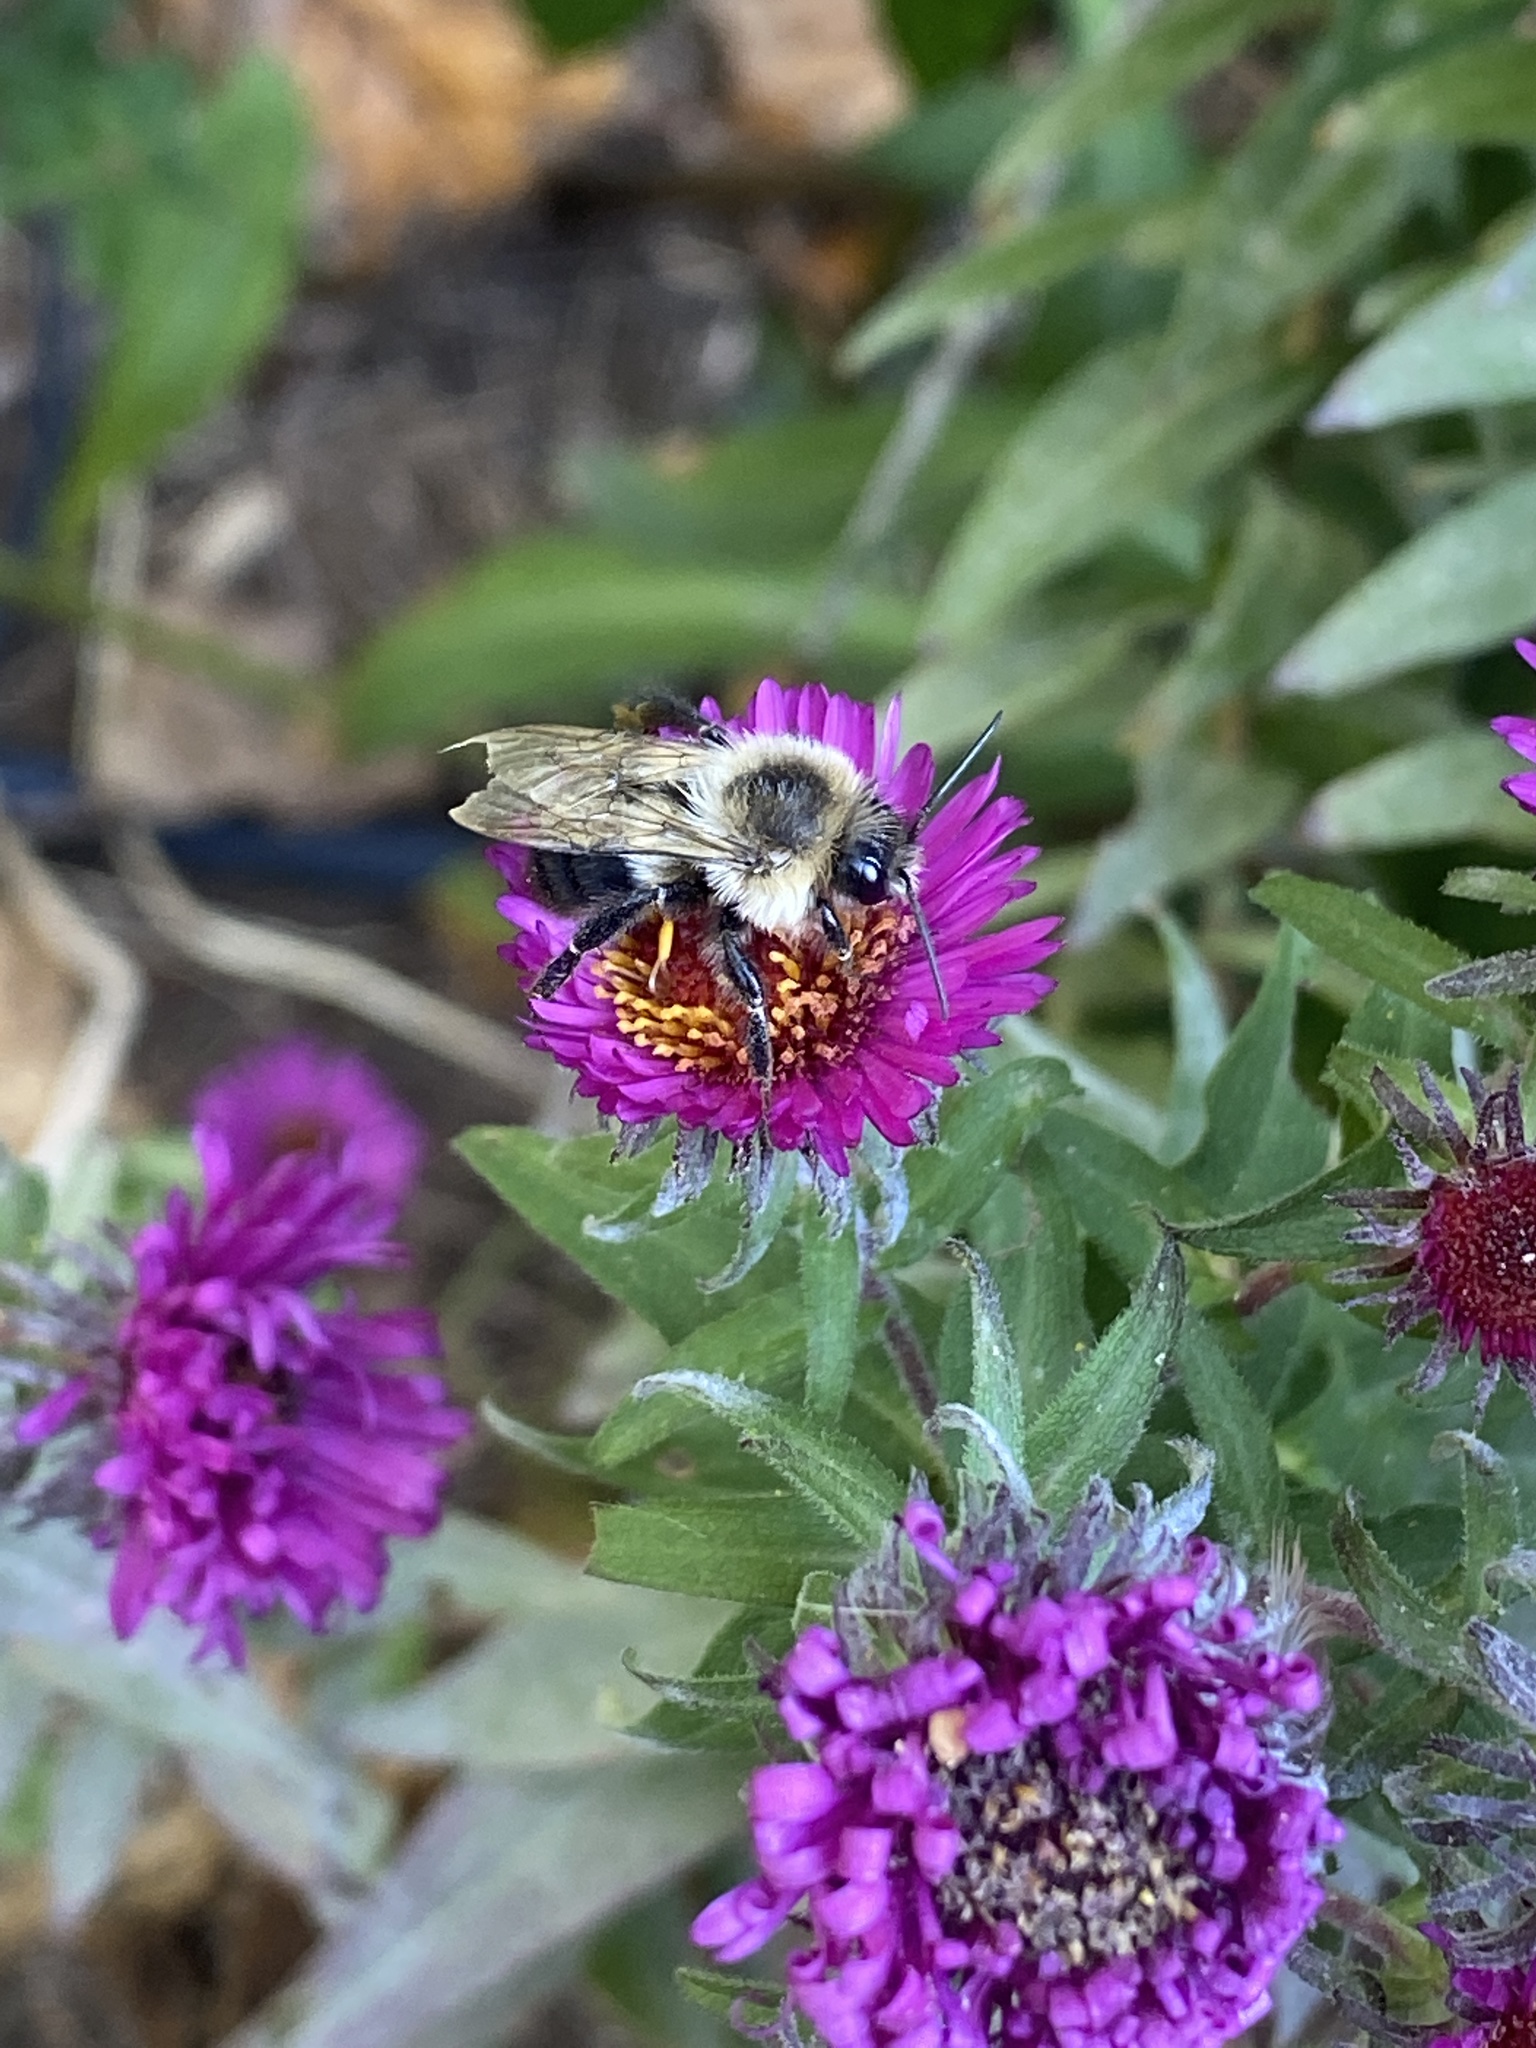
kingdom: Animalia
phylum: Arthropoda
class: Insecta
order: Hymenoptera
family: Apidae
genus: Bombus
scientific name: Bombus impatiens
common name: Common eastern bumble bee
